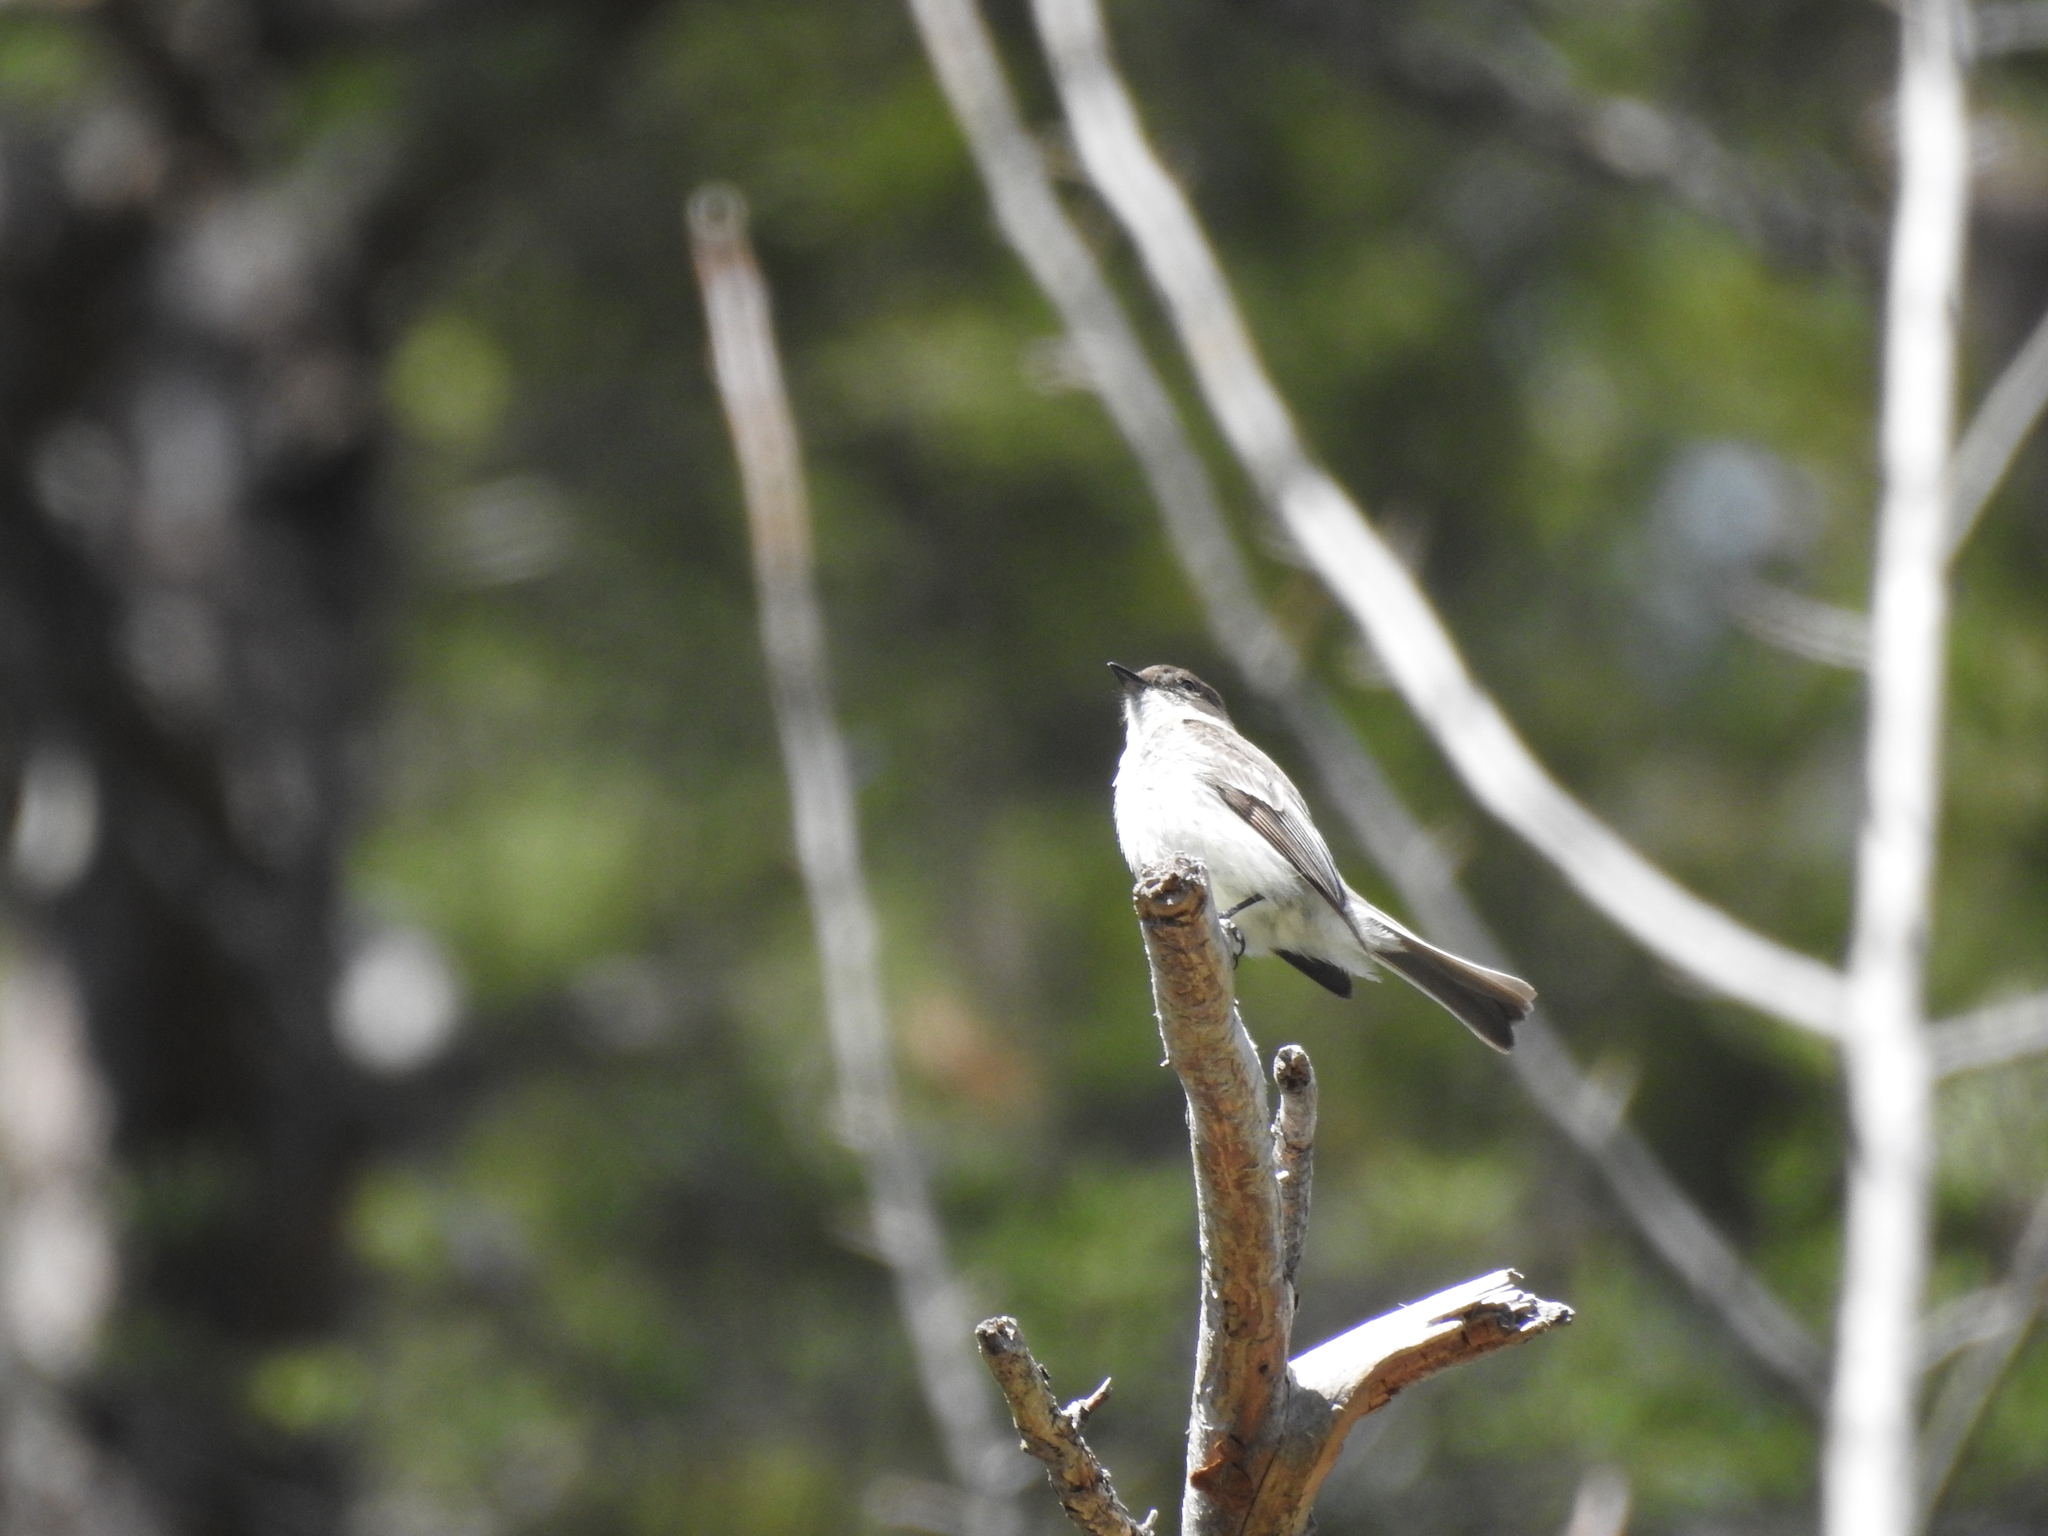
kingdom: Animalia
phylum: Chordata
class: Aves
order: Passeriformes
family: Tyrannidae
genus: Sayornis
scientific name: Sayornis phoebe
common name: Eastern phoebe
